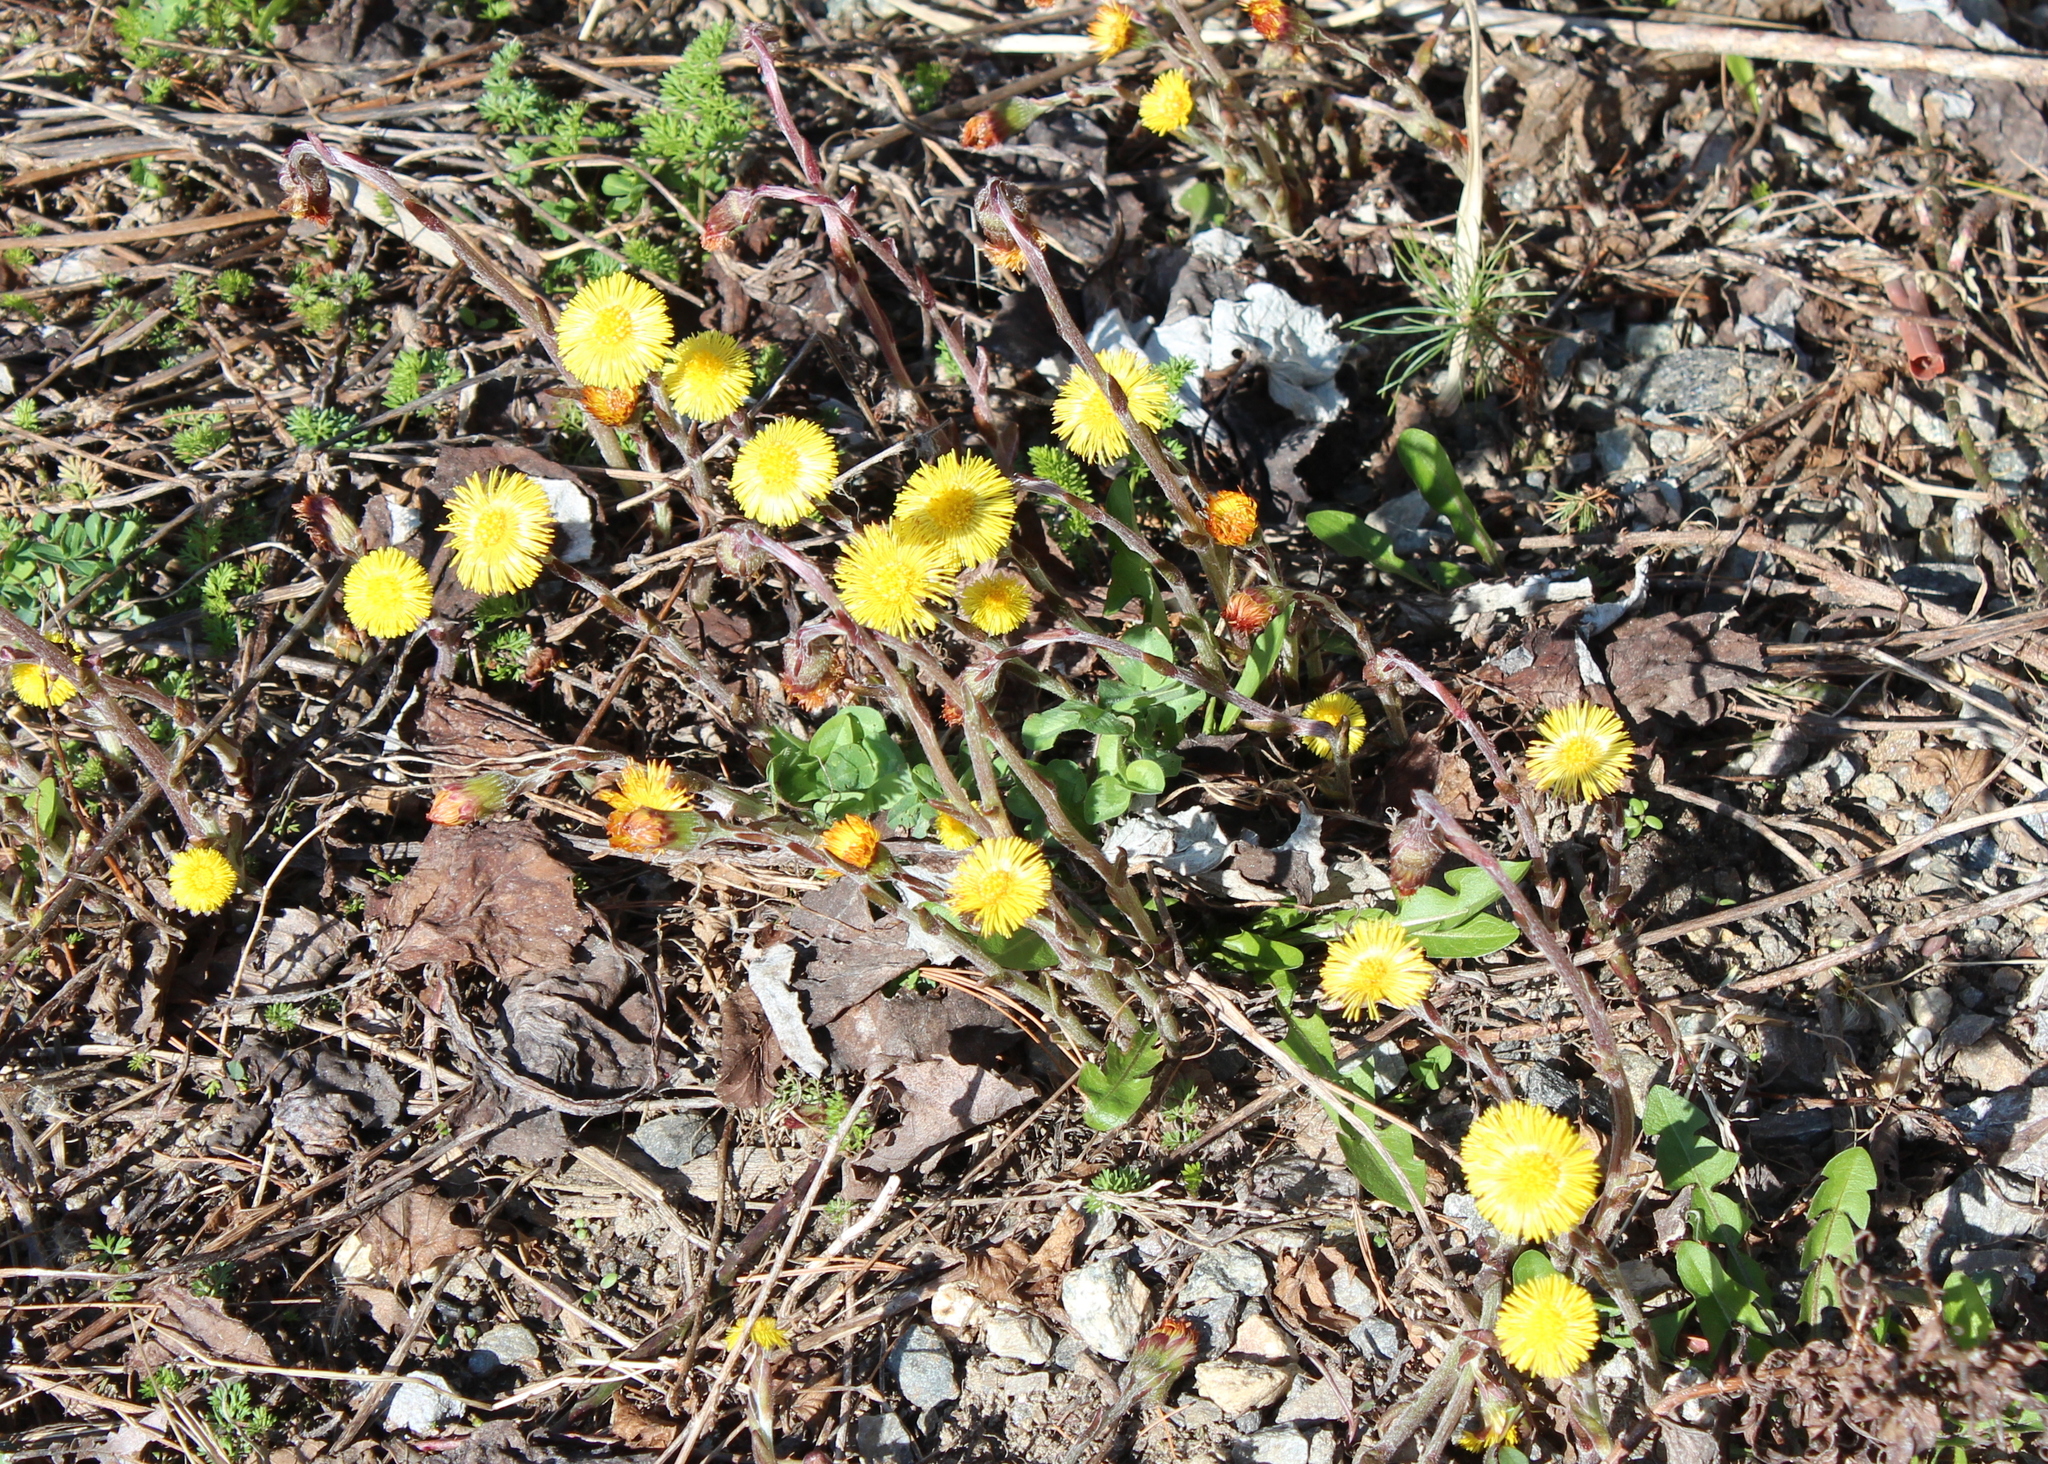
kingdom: Plantae
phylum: Tracheophyta
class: Magnoliopsida
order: Asterales
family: Asteraceae
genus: Tussilago
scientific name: Tussilago farfara
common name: Coltsfoot
